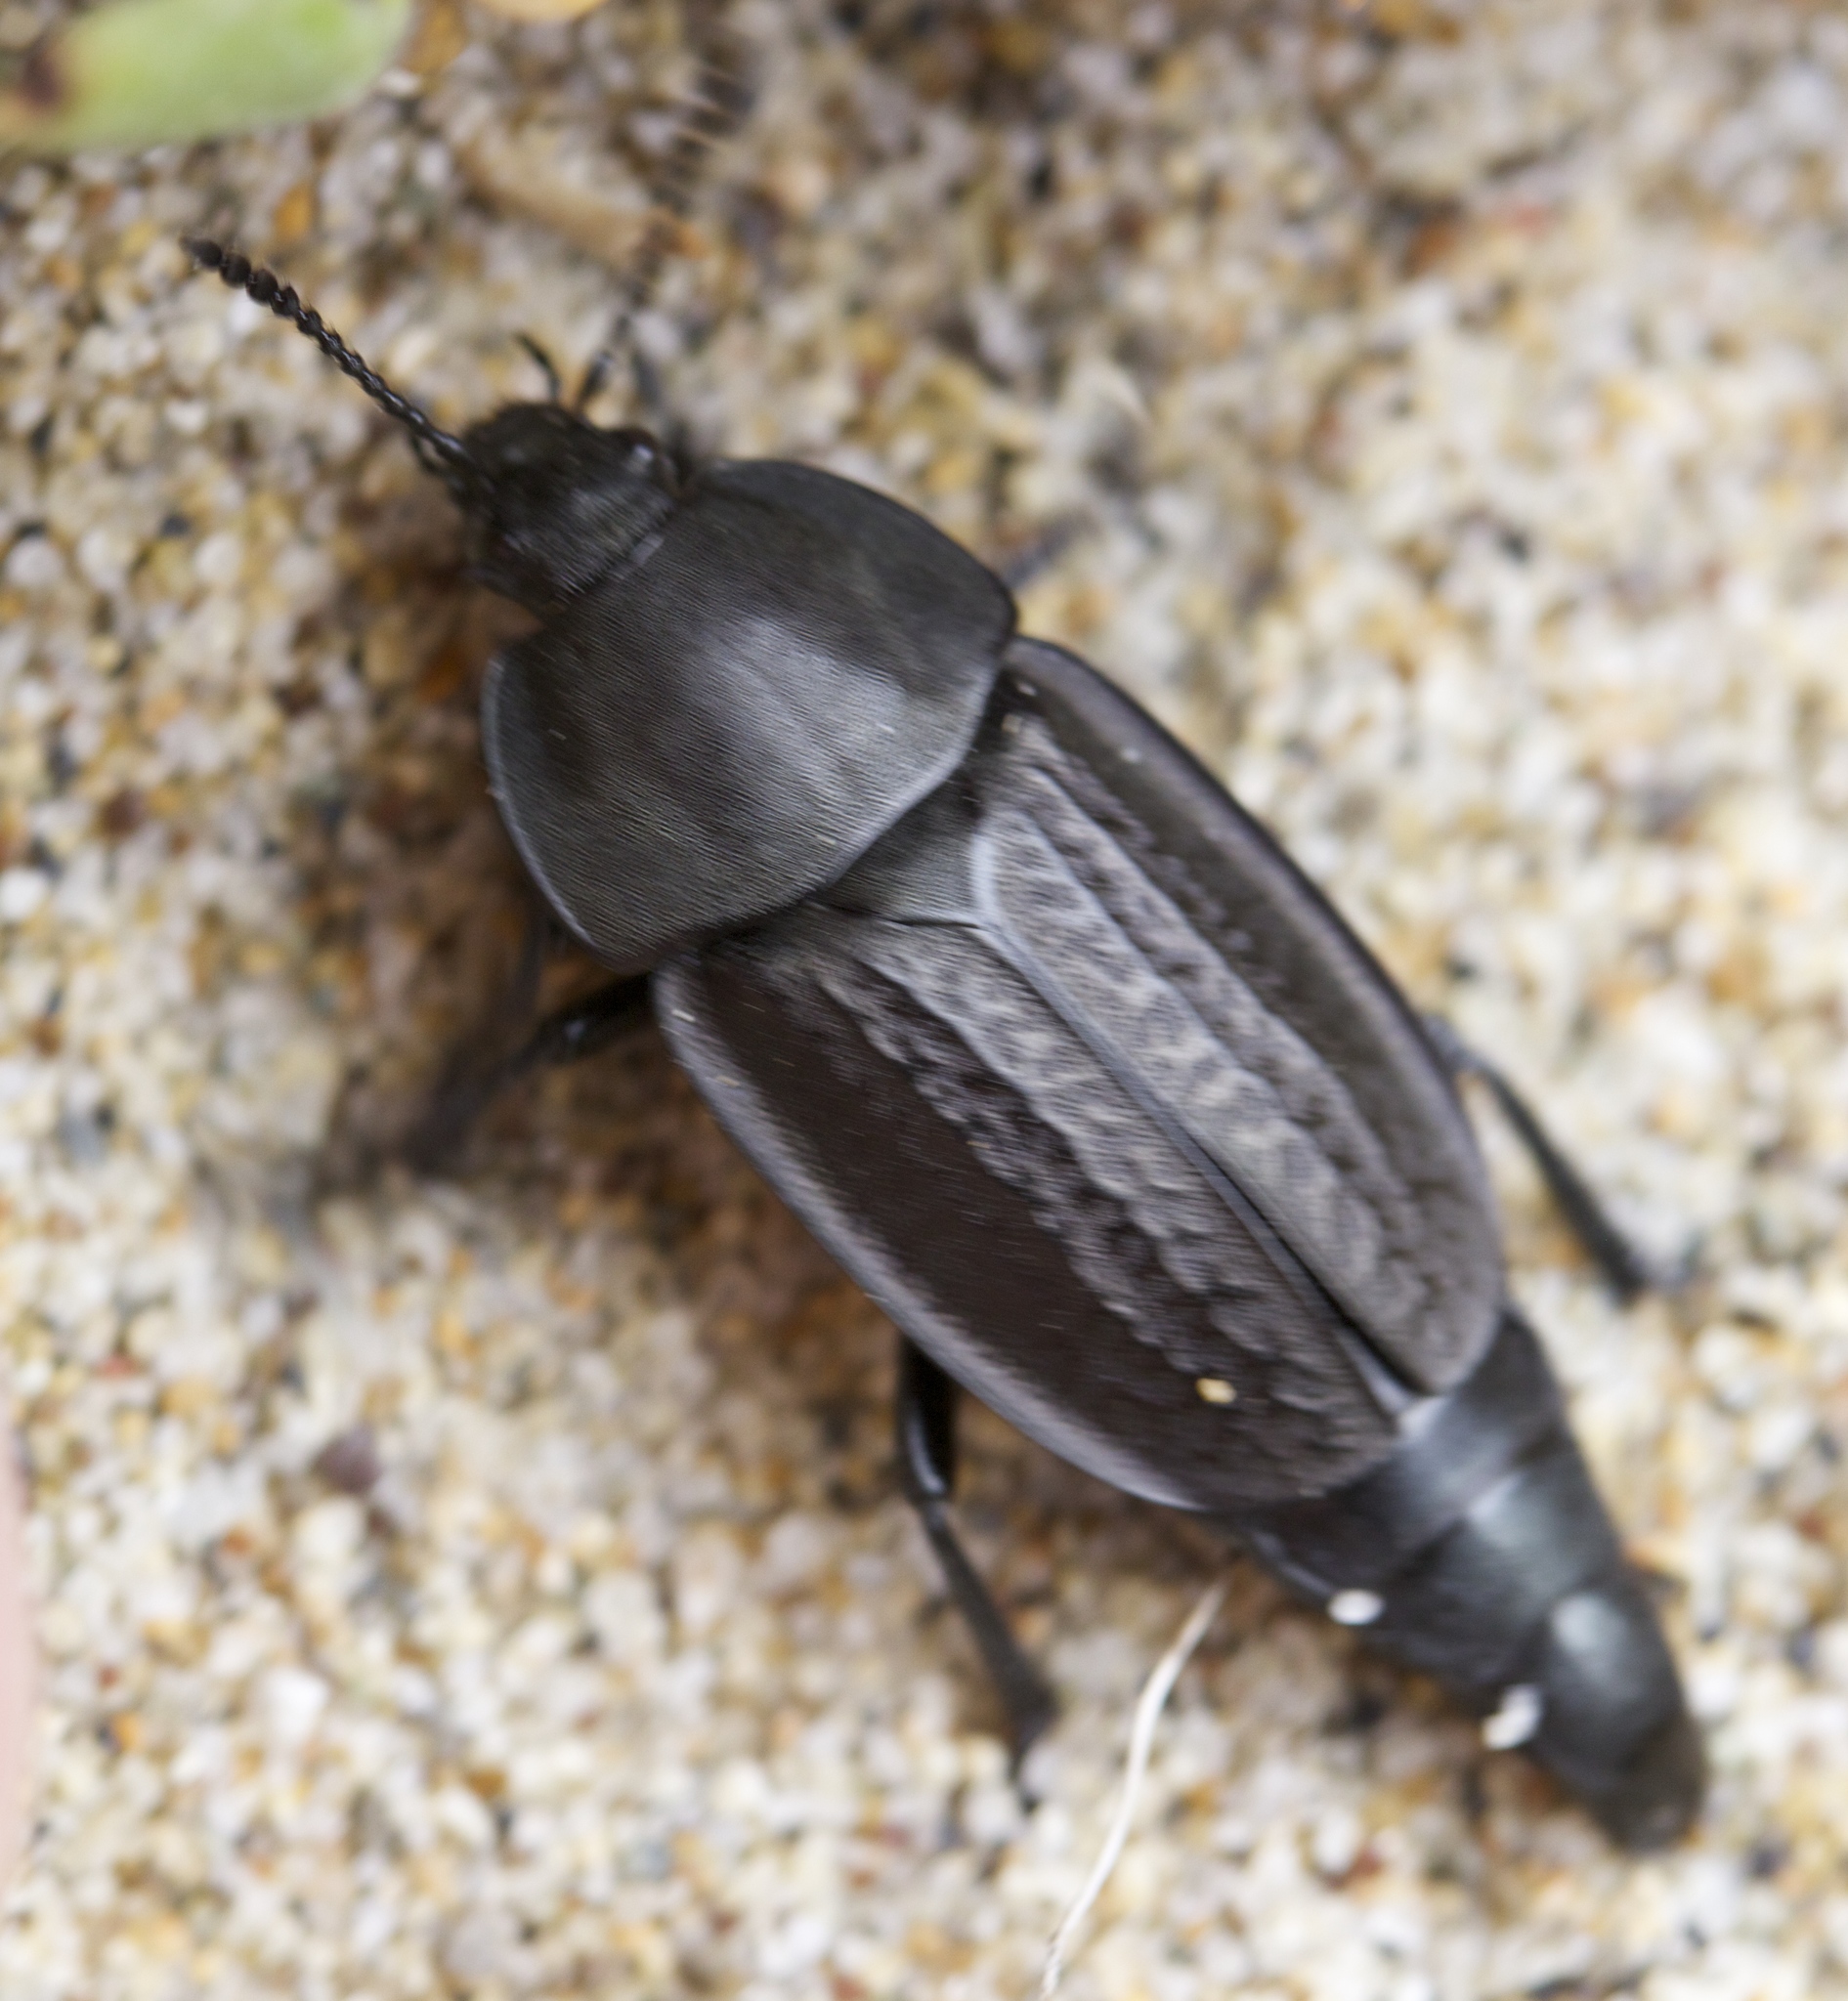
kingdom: Animalia
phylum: Arthropoda
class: Insecta
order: Coleoptera
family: Staphylinidae
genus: Heterosilpha
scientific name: Heterosilpha aenescens
